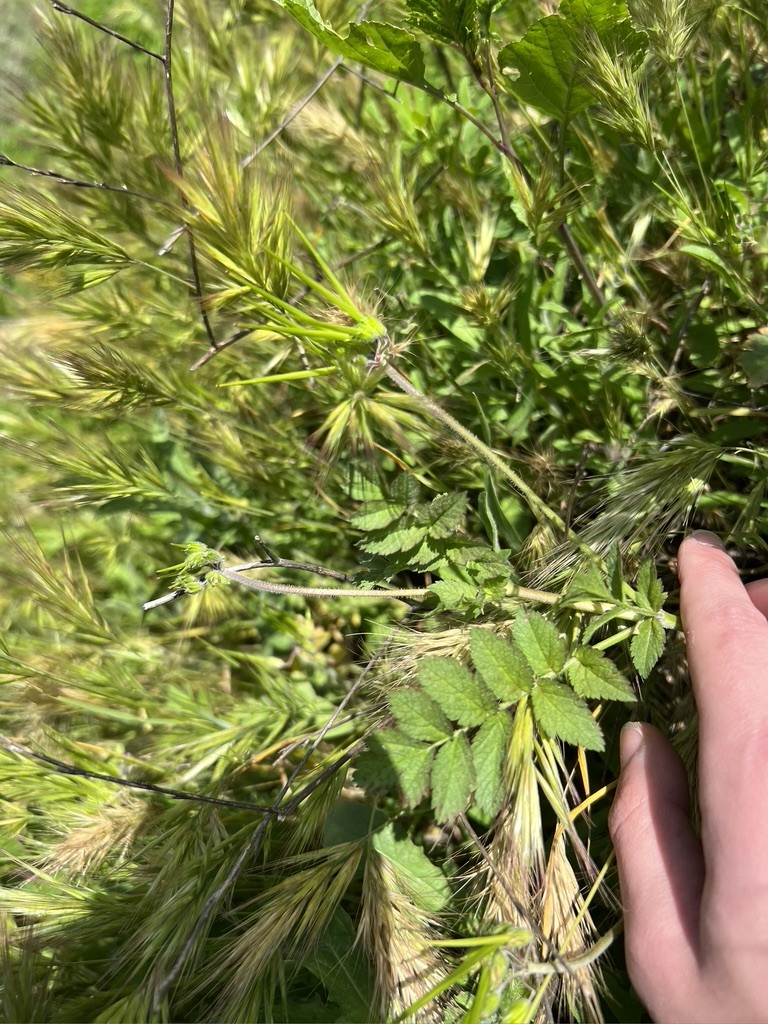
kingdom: Plantae
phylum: Tracheophyta
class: Magnoliopsida
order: Geraniales
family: Geraniaceae
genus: Erodium
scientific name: Erodium moschatum
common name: Musk stork's-bill
